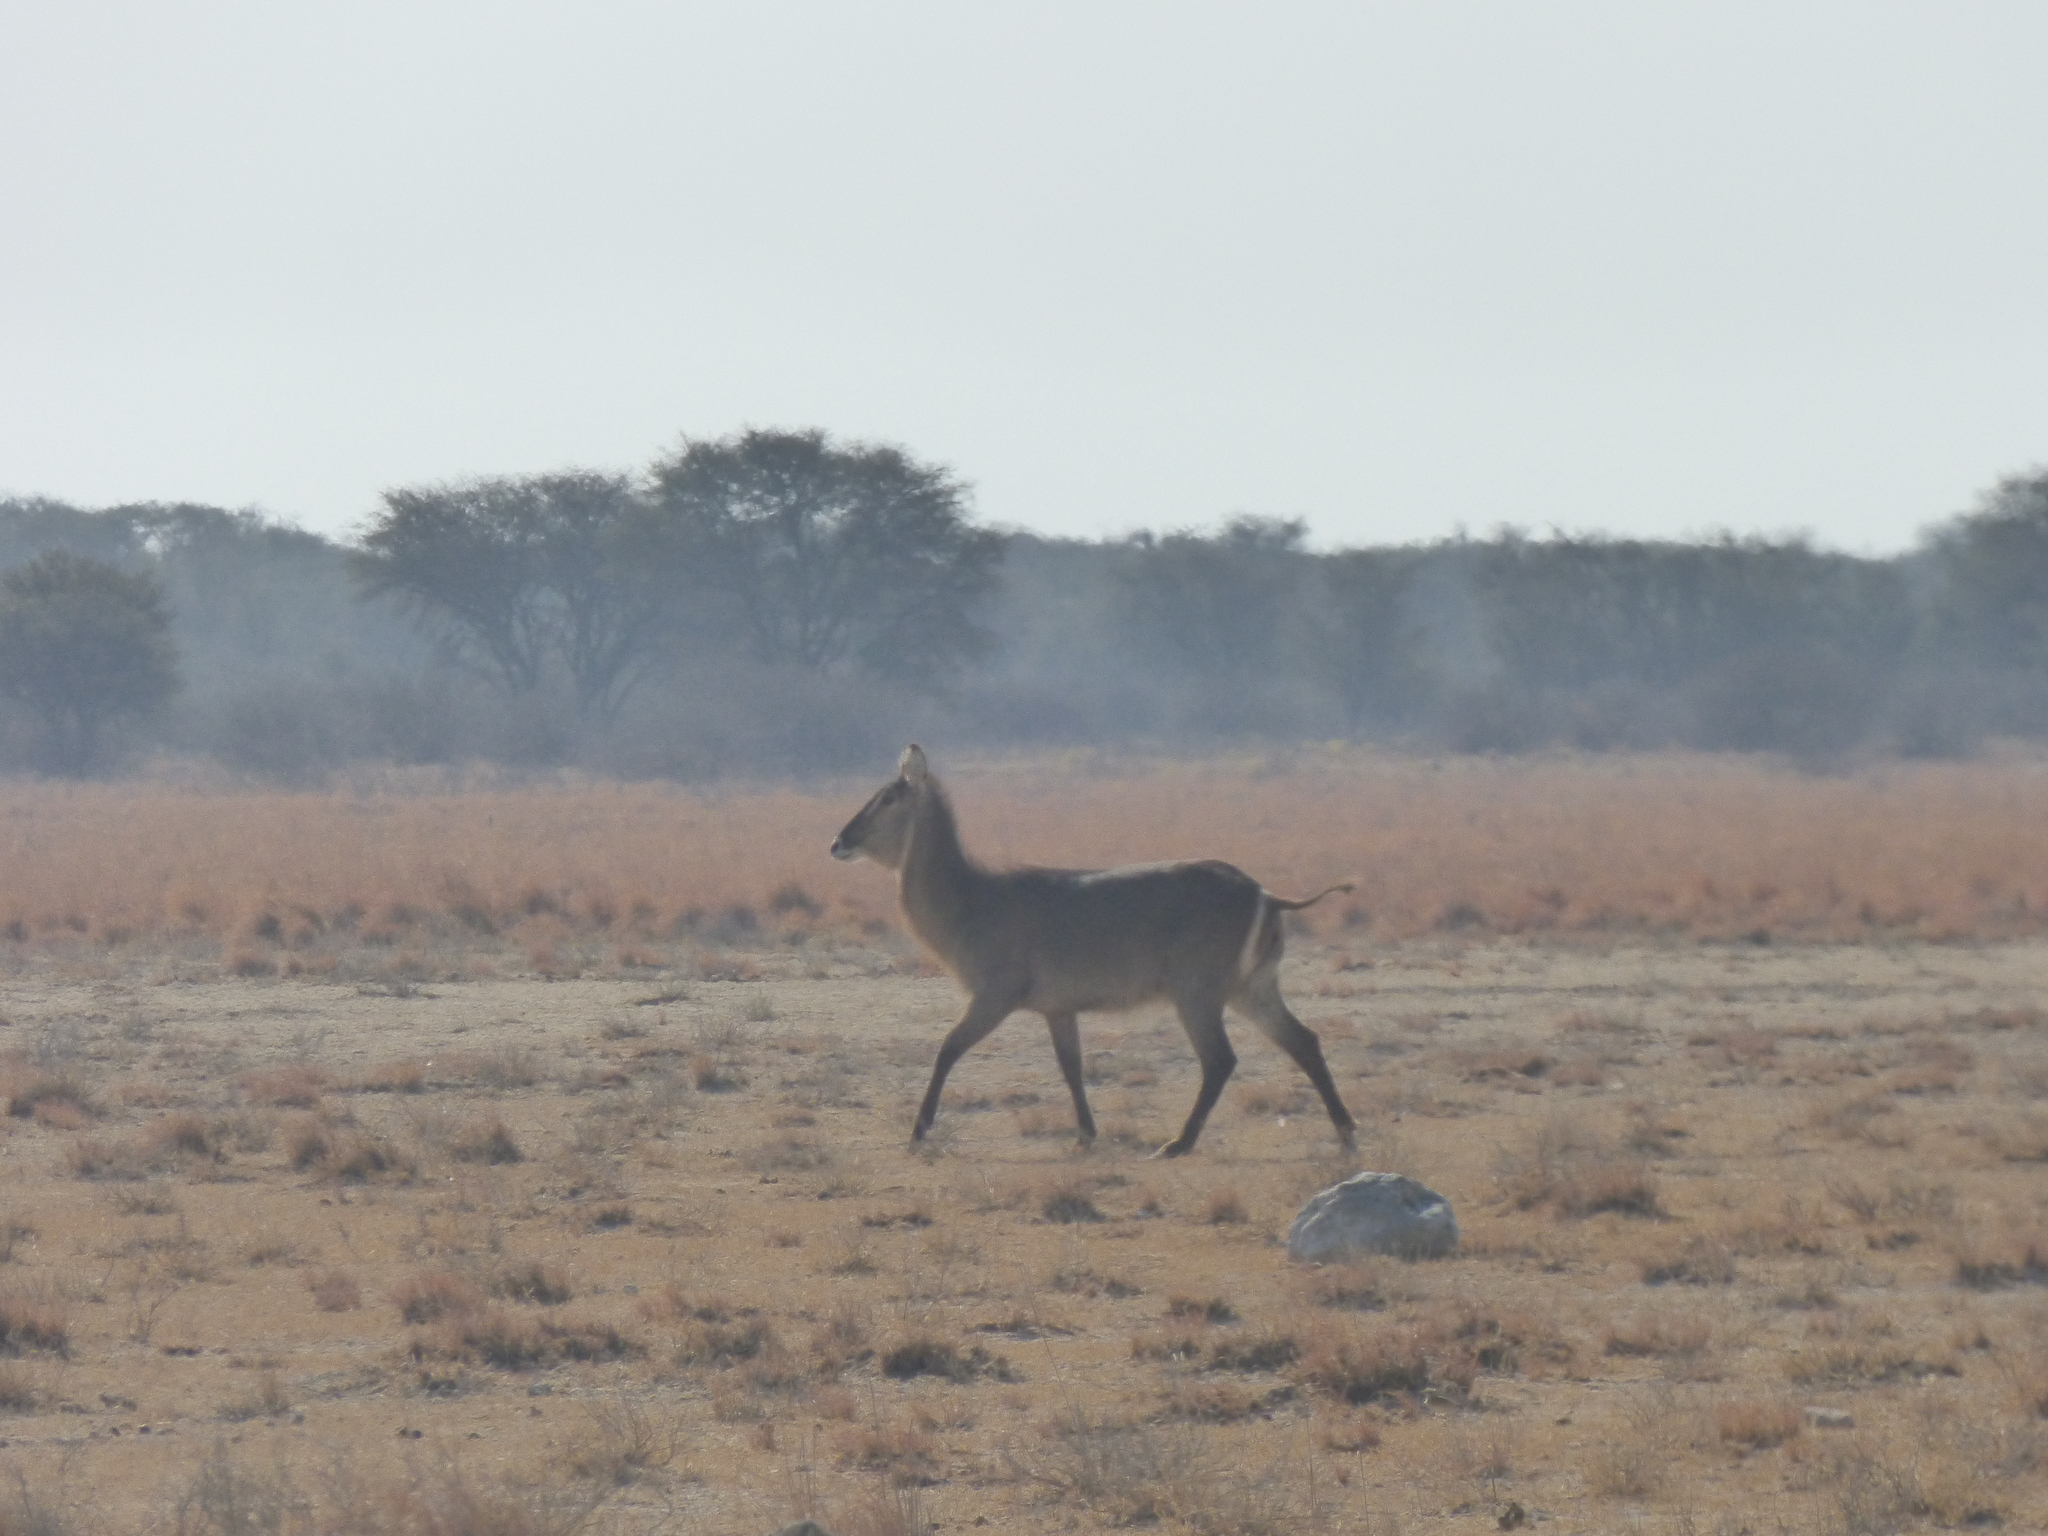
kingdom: Animalia
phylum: Chordata
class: Mammalia
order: Artiodactyla
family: Bovidae
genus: Kobus
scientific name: Kobus ellipsiprymnus
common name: Waterbuck
